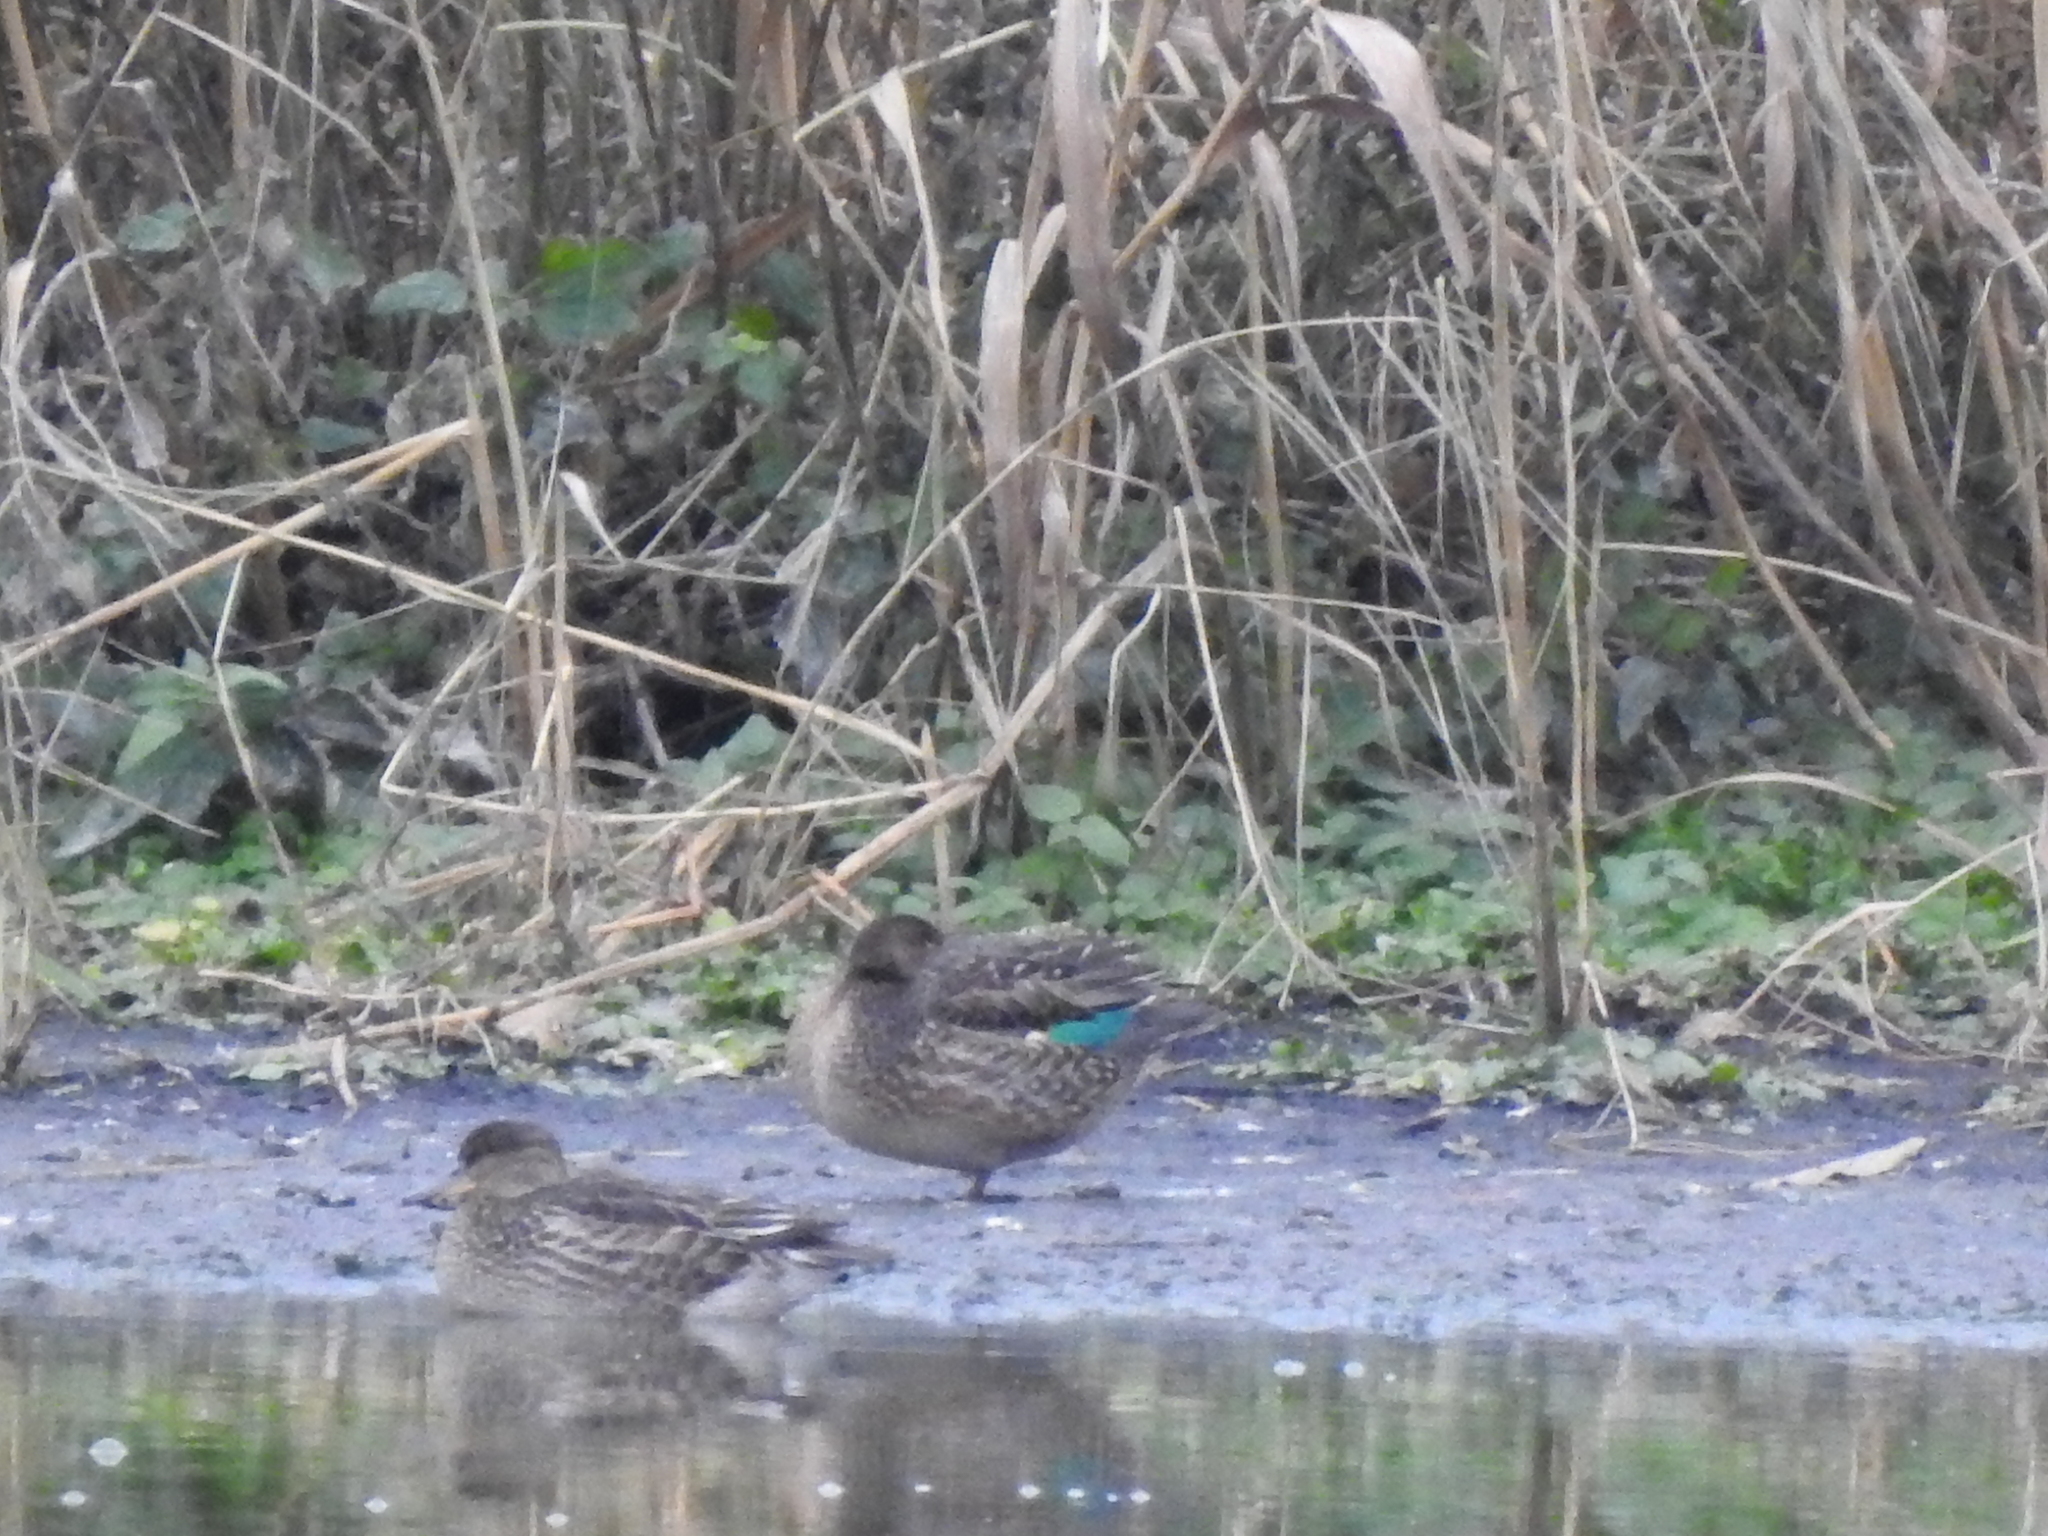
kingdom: Animalia
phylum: Chordata
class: Aves
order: Anseriformes
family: Anatidae
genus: Anas
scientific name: Anas crecca
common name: Eurasian teal
